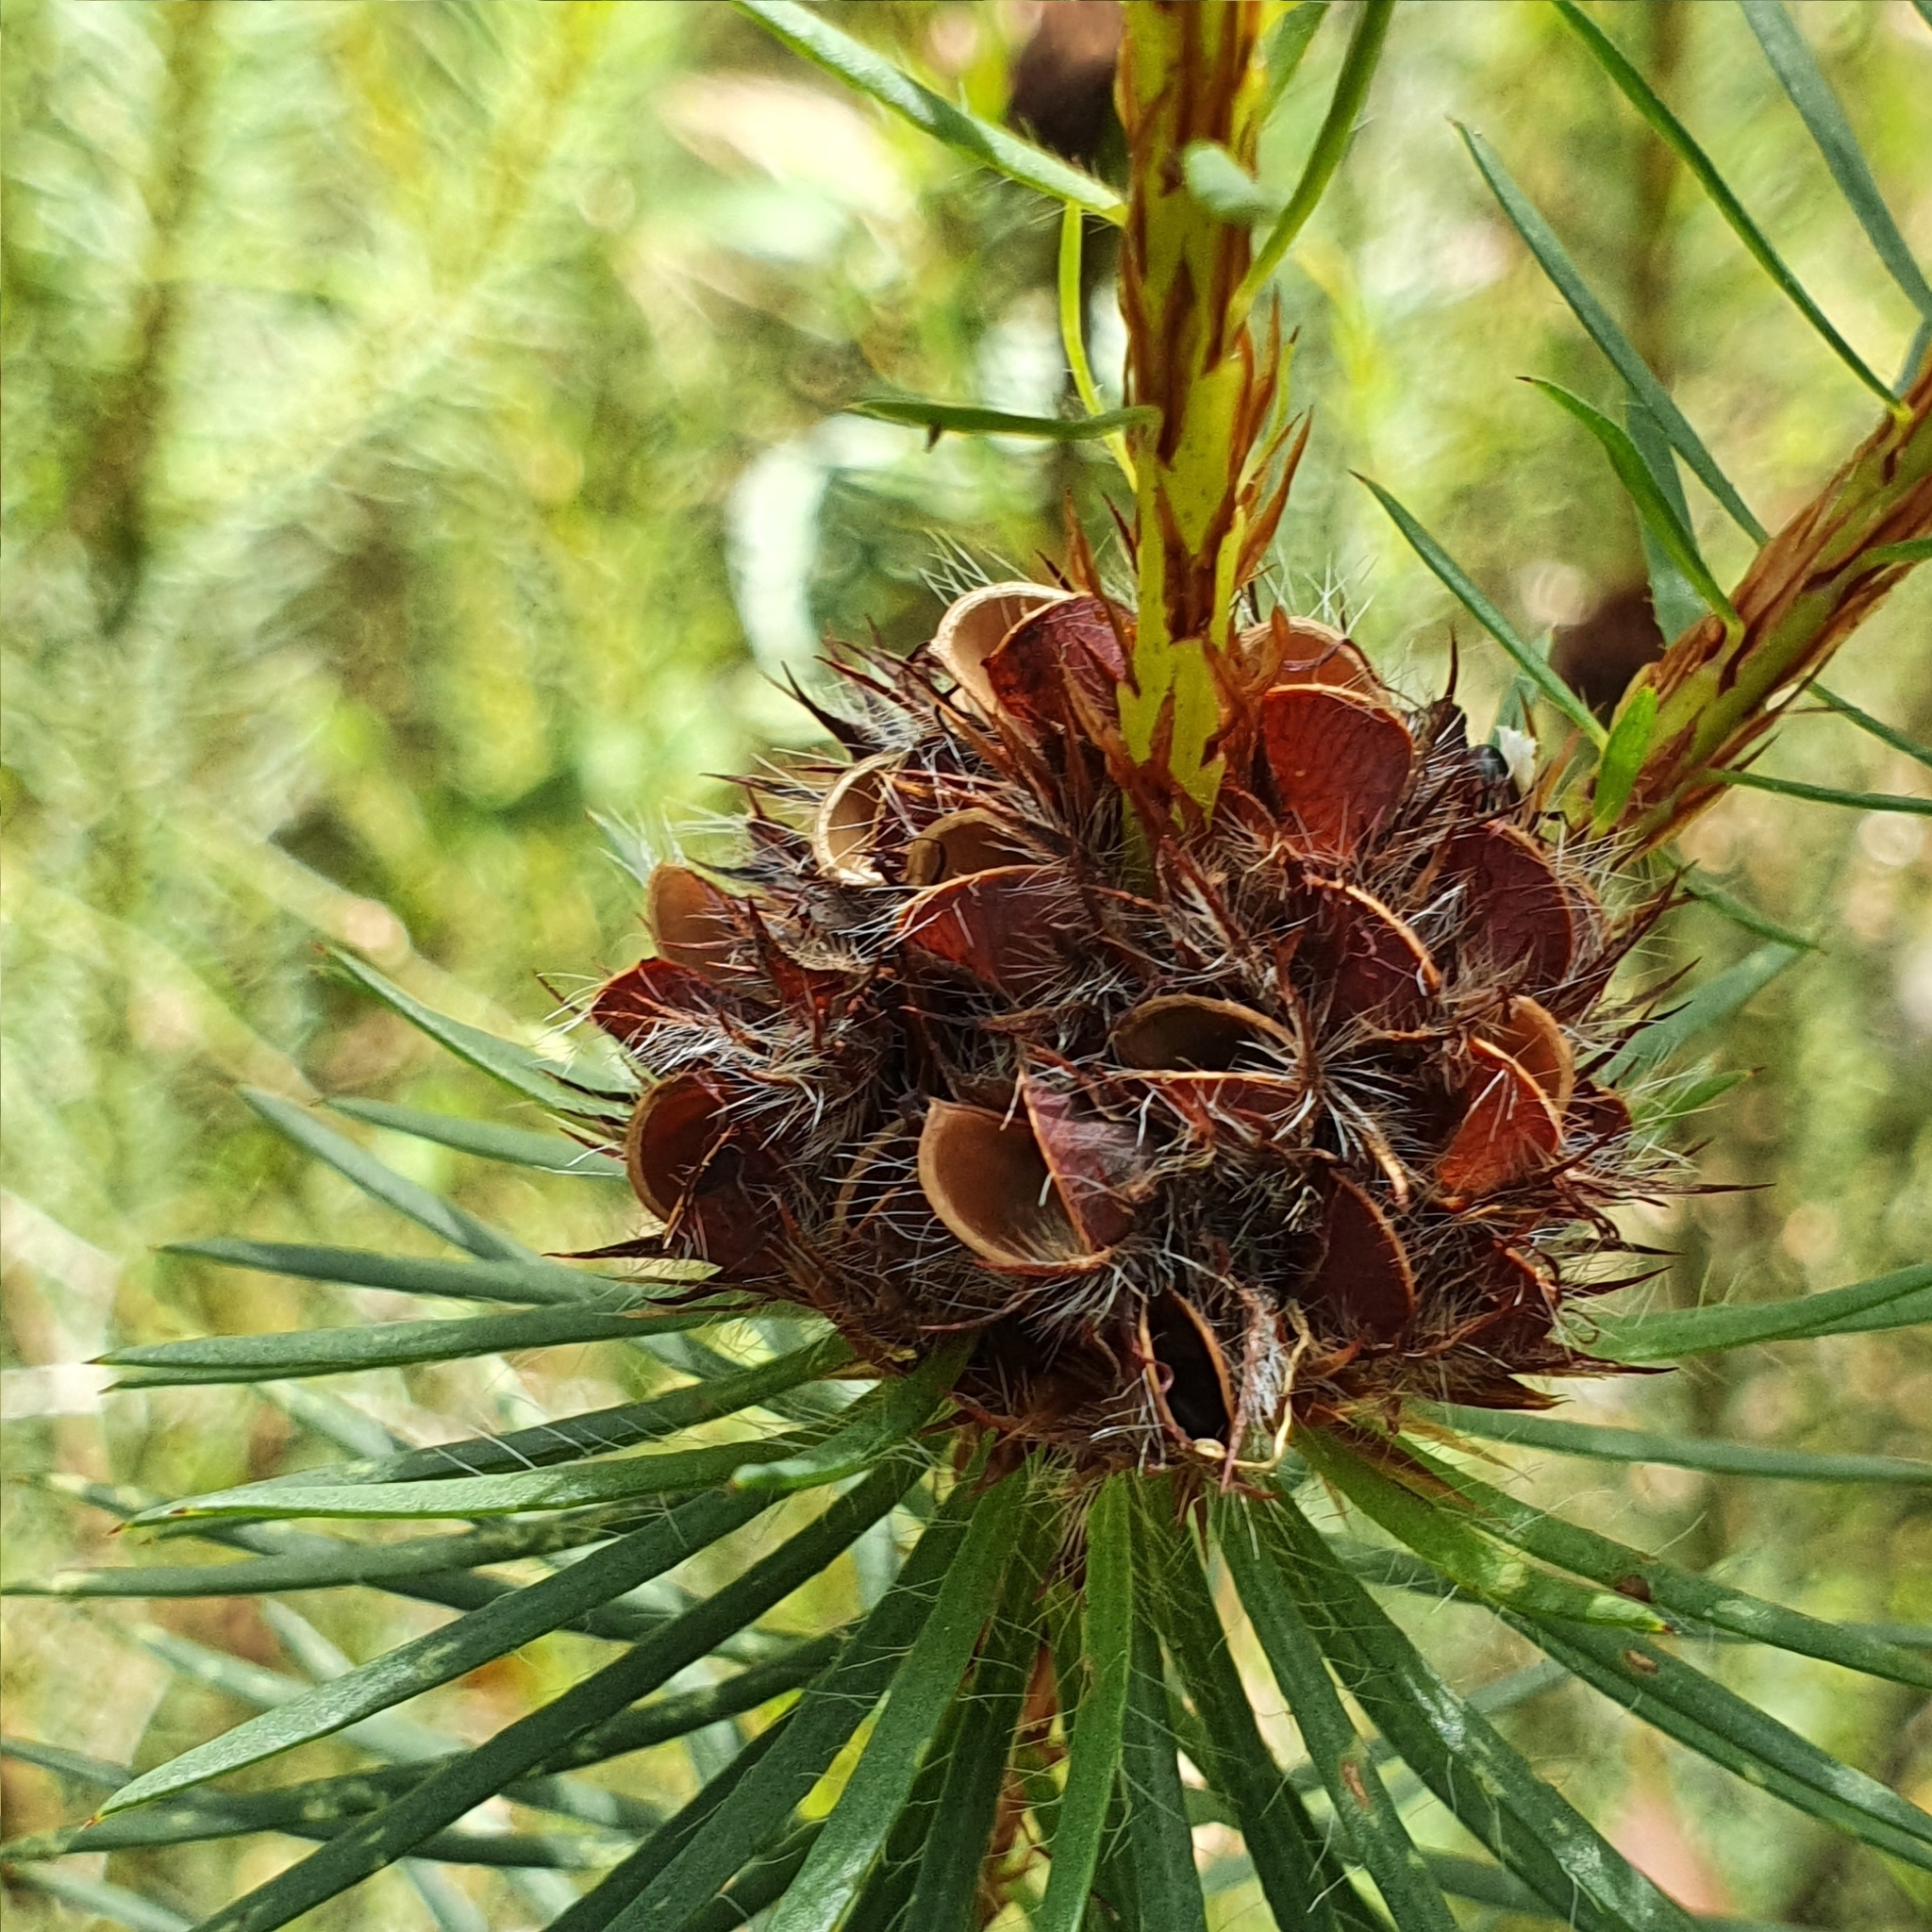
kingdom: Plantae
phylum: Tracheophyta
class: Magnoliopsida
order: Fabales
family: Fabaceae
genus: Pultenaea
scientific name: Pultenaea stipularis
